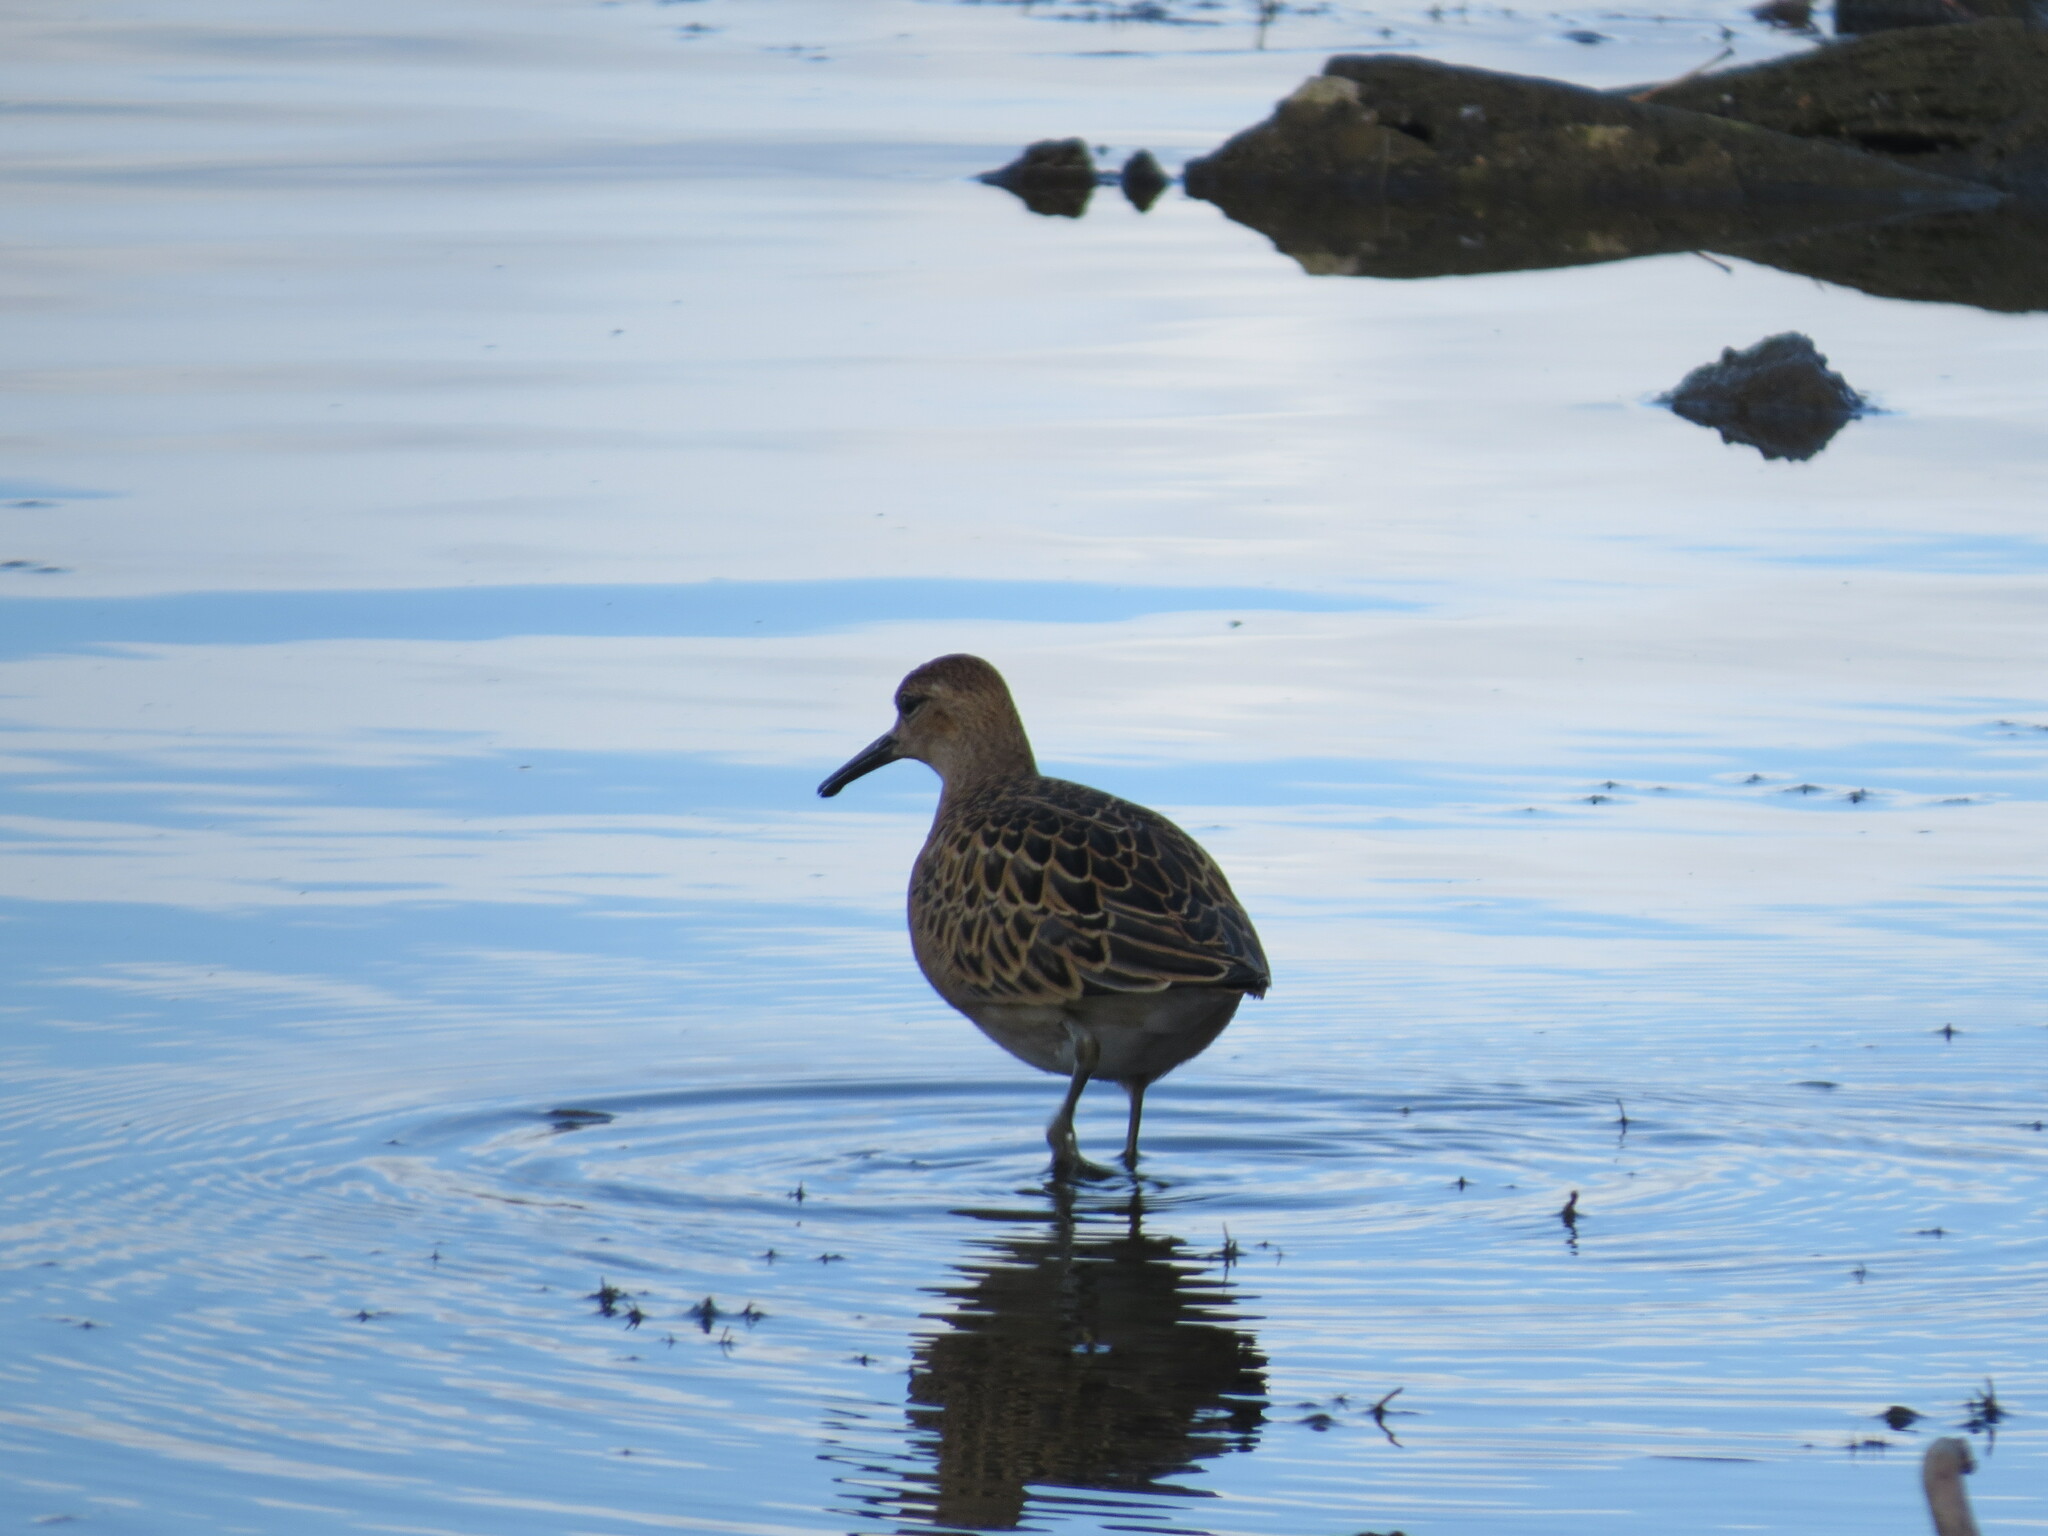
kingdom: Animalia
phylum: Chordata
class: Aves
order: Charadriiformes
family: Scolopacidae
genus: Calidris
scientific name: Calidris pugnax
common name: Ruff
